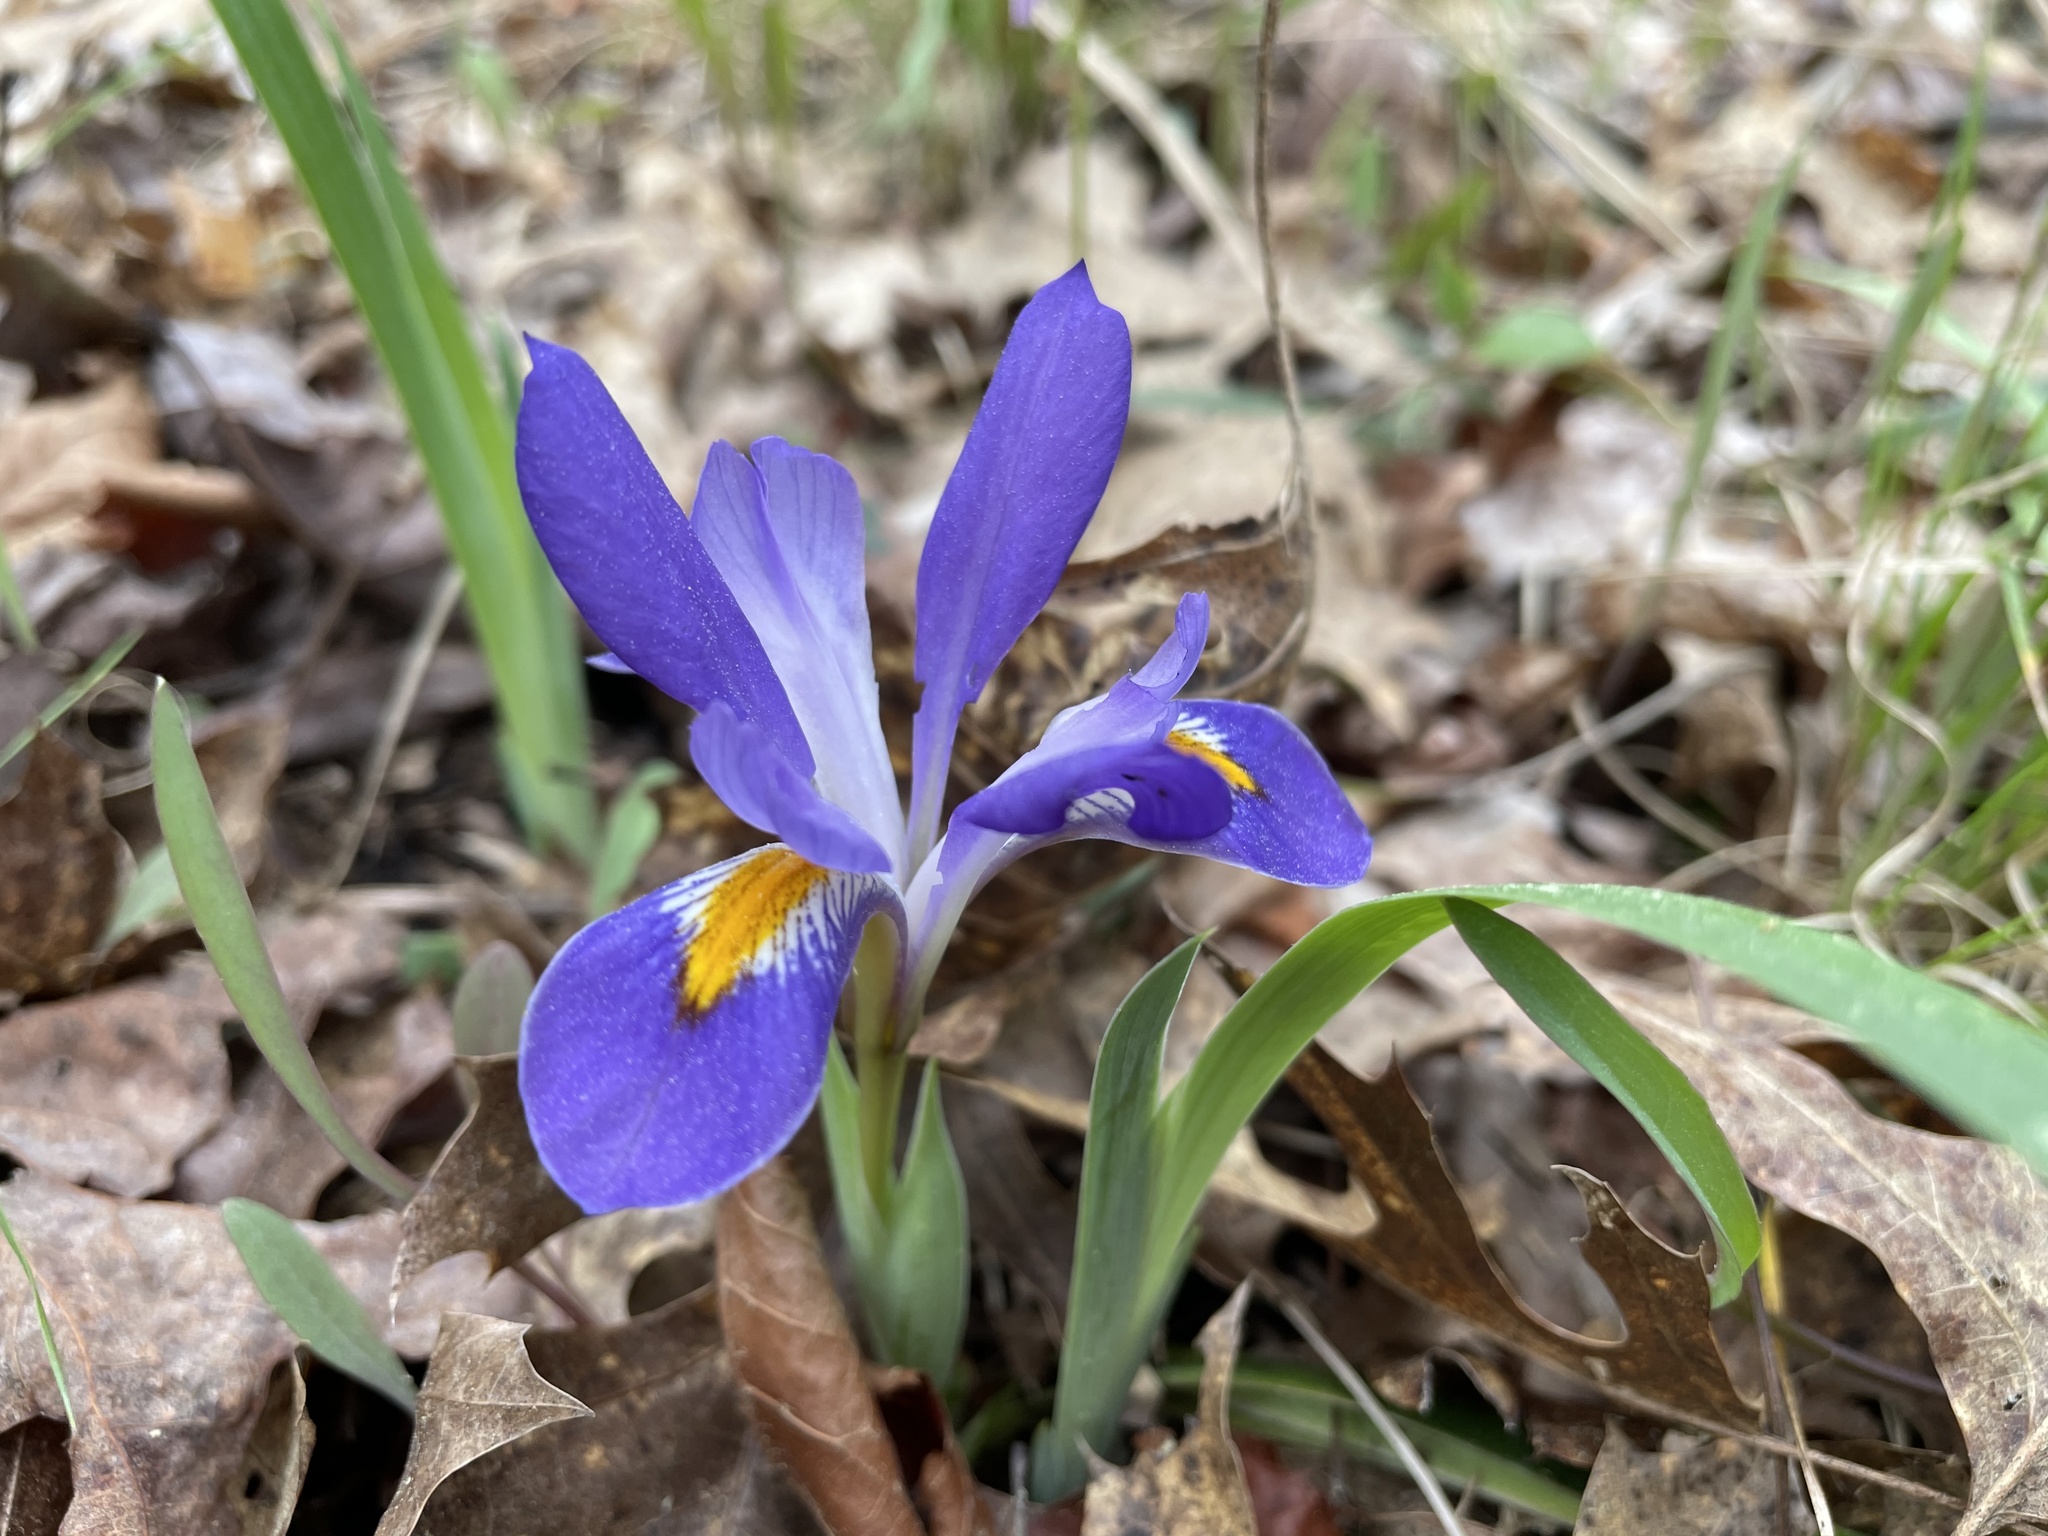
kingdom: Plantae
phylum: Tracheophyta
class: Liliopsida
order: Asparagales
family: Iridaceae
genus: Iris
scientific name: Iris verna
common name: Dwarf iris
